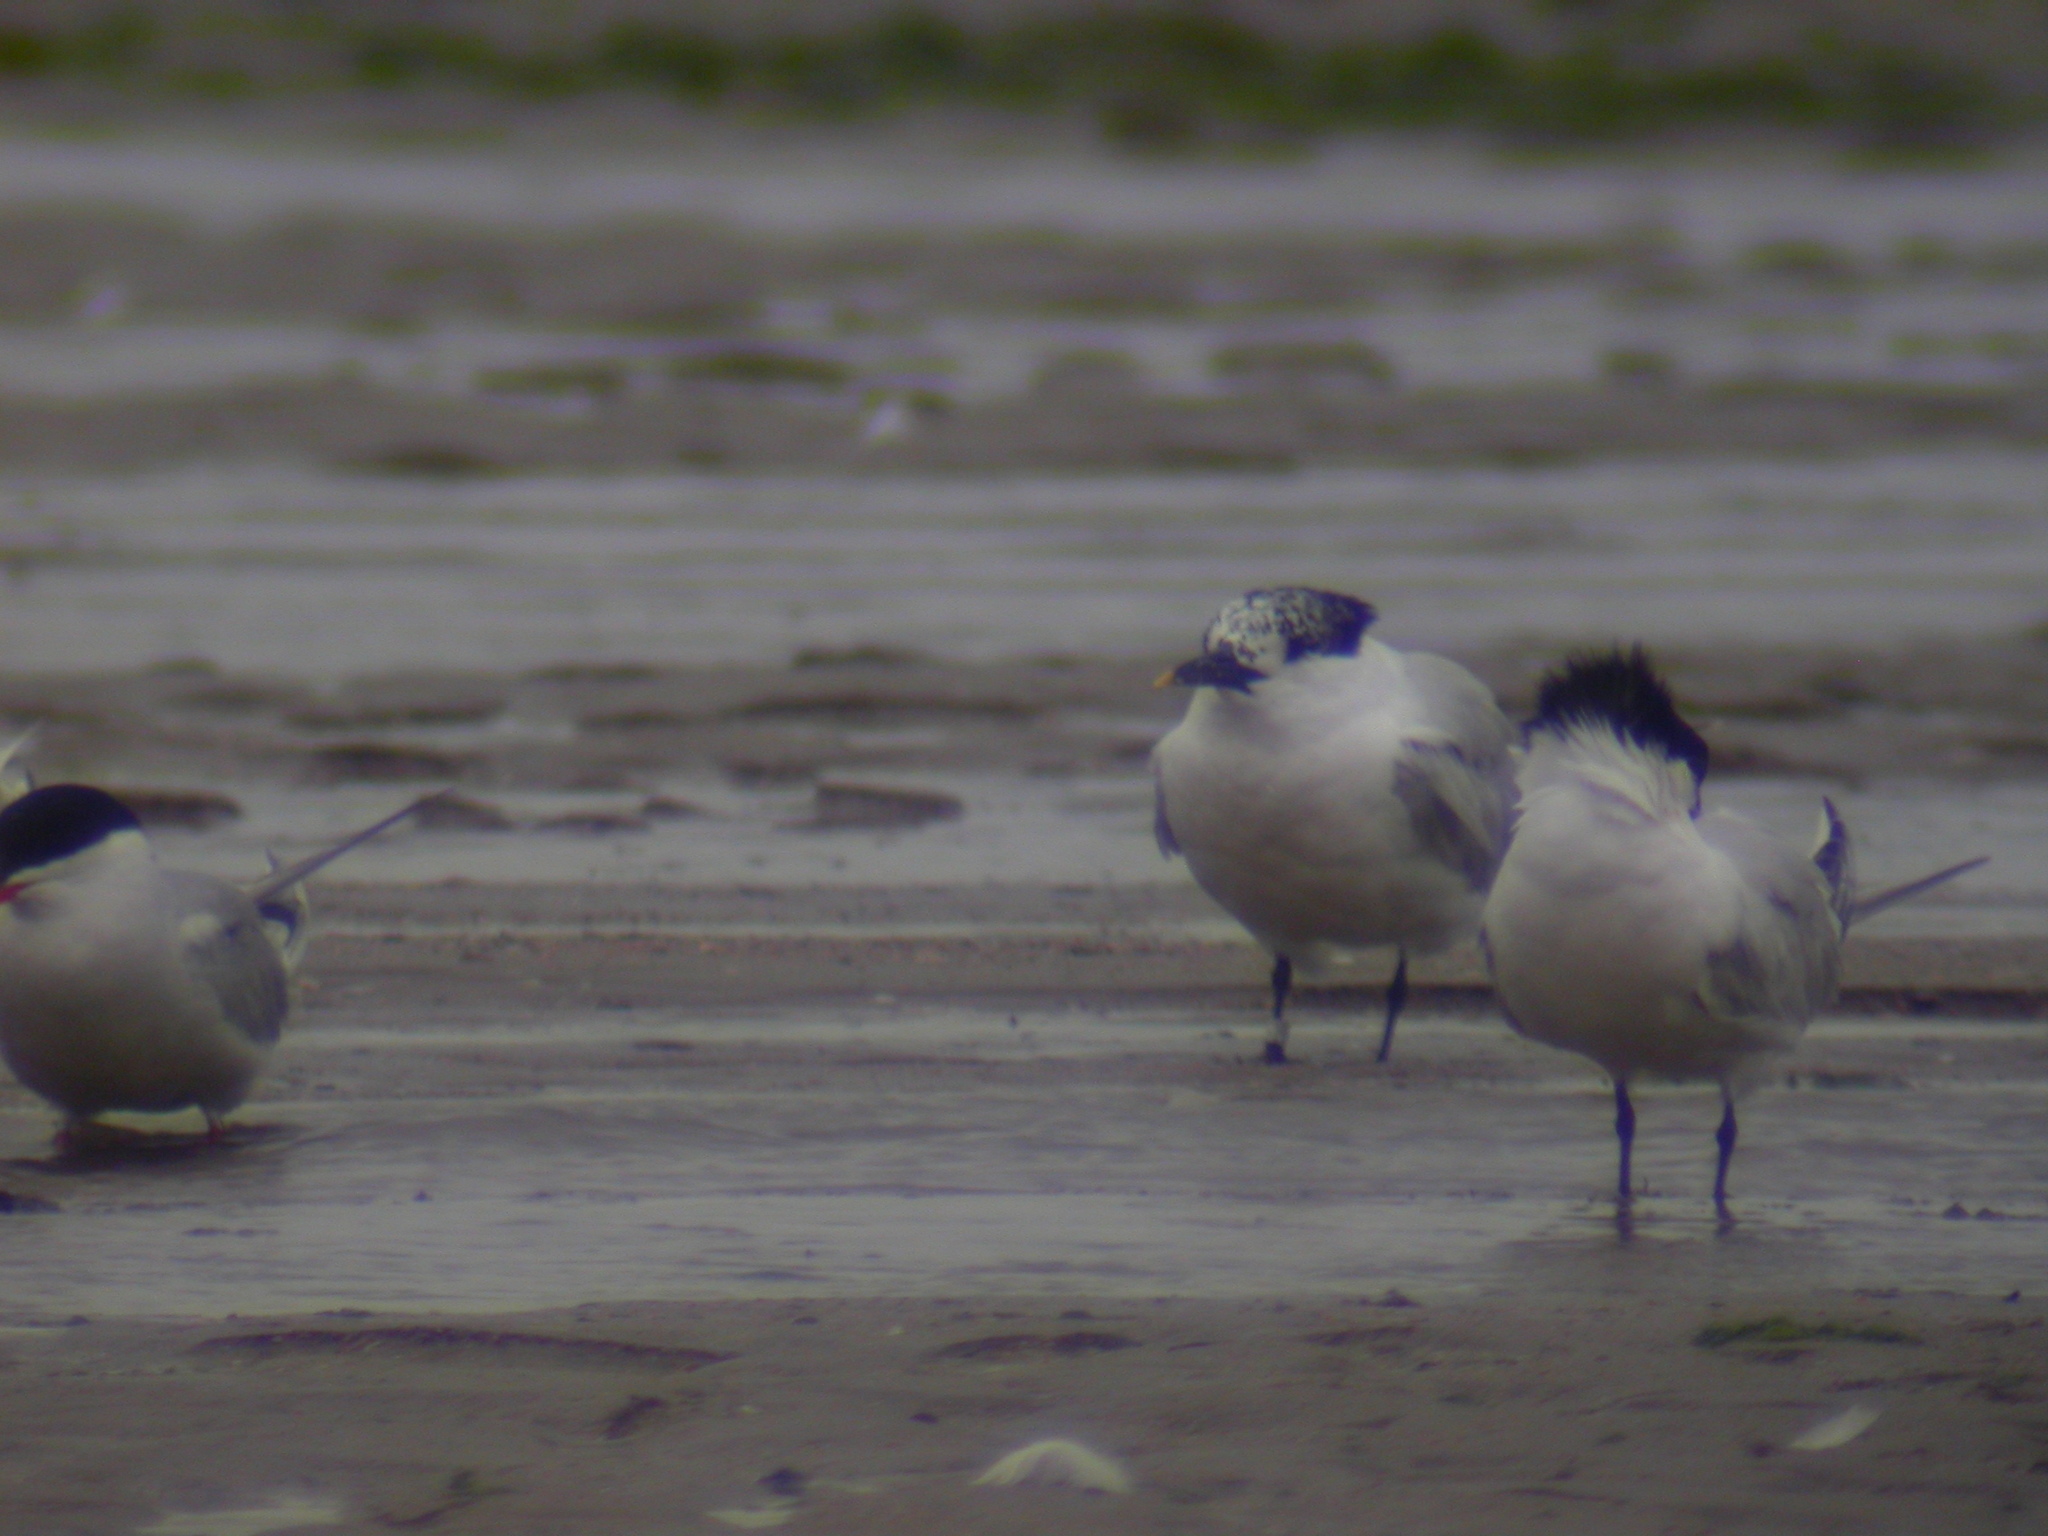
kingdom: Animalia
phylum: Chordata
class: Aves
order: Charadriiformes
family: Laridae
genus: Thalasseus
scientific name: Thalasseus sandvicensis
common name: Sandwich tern
